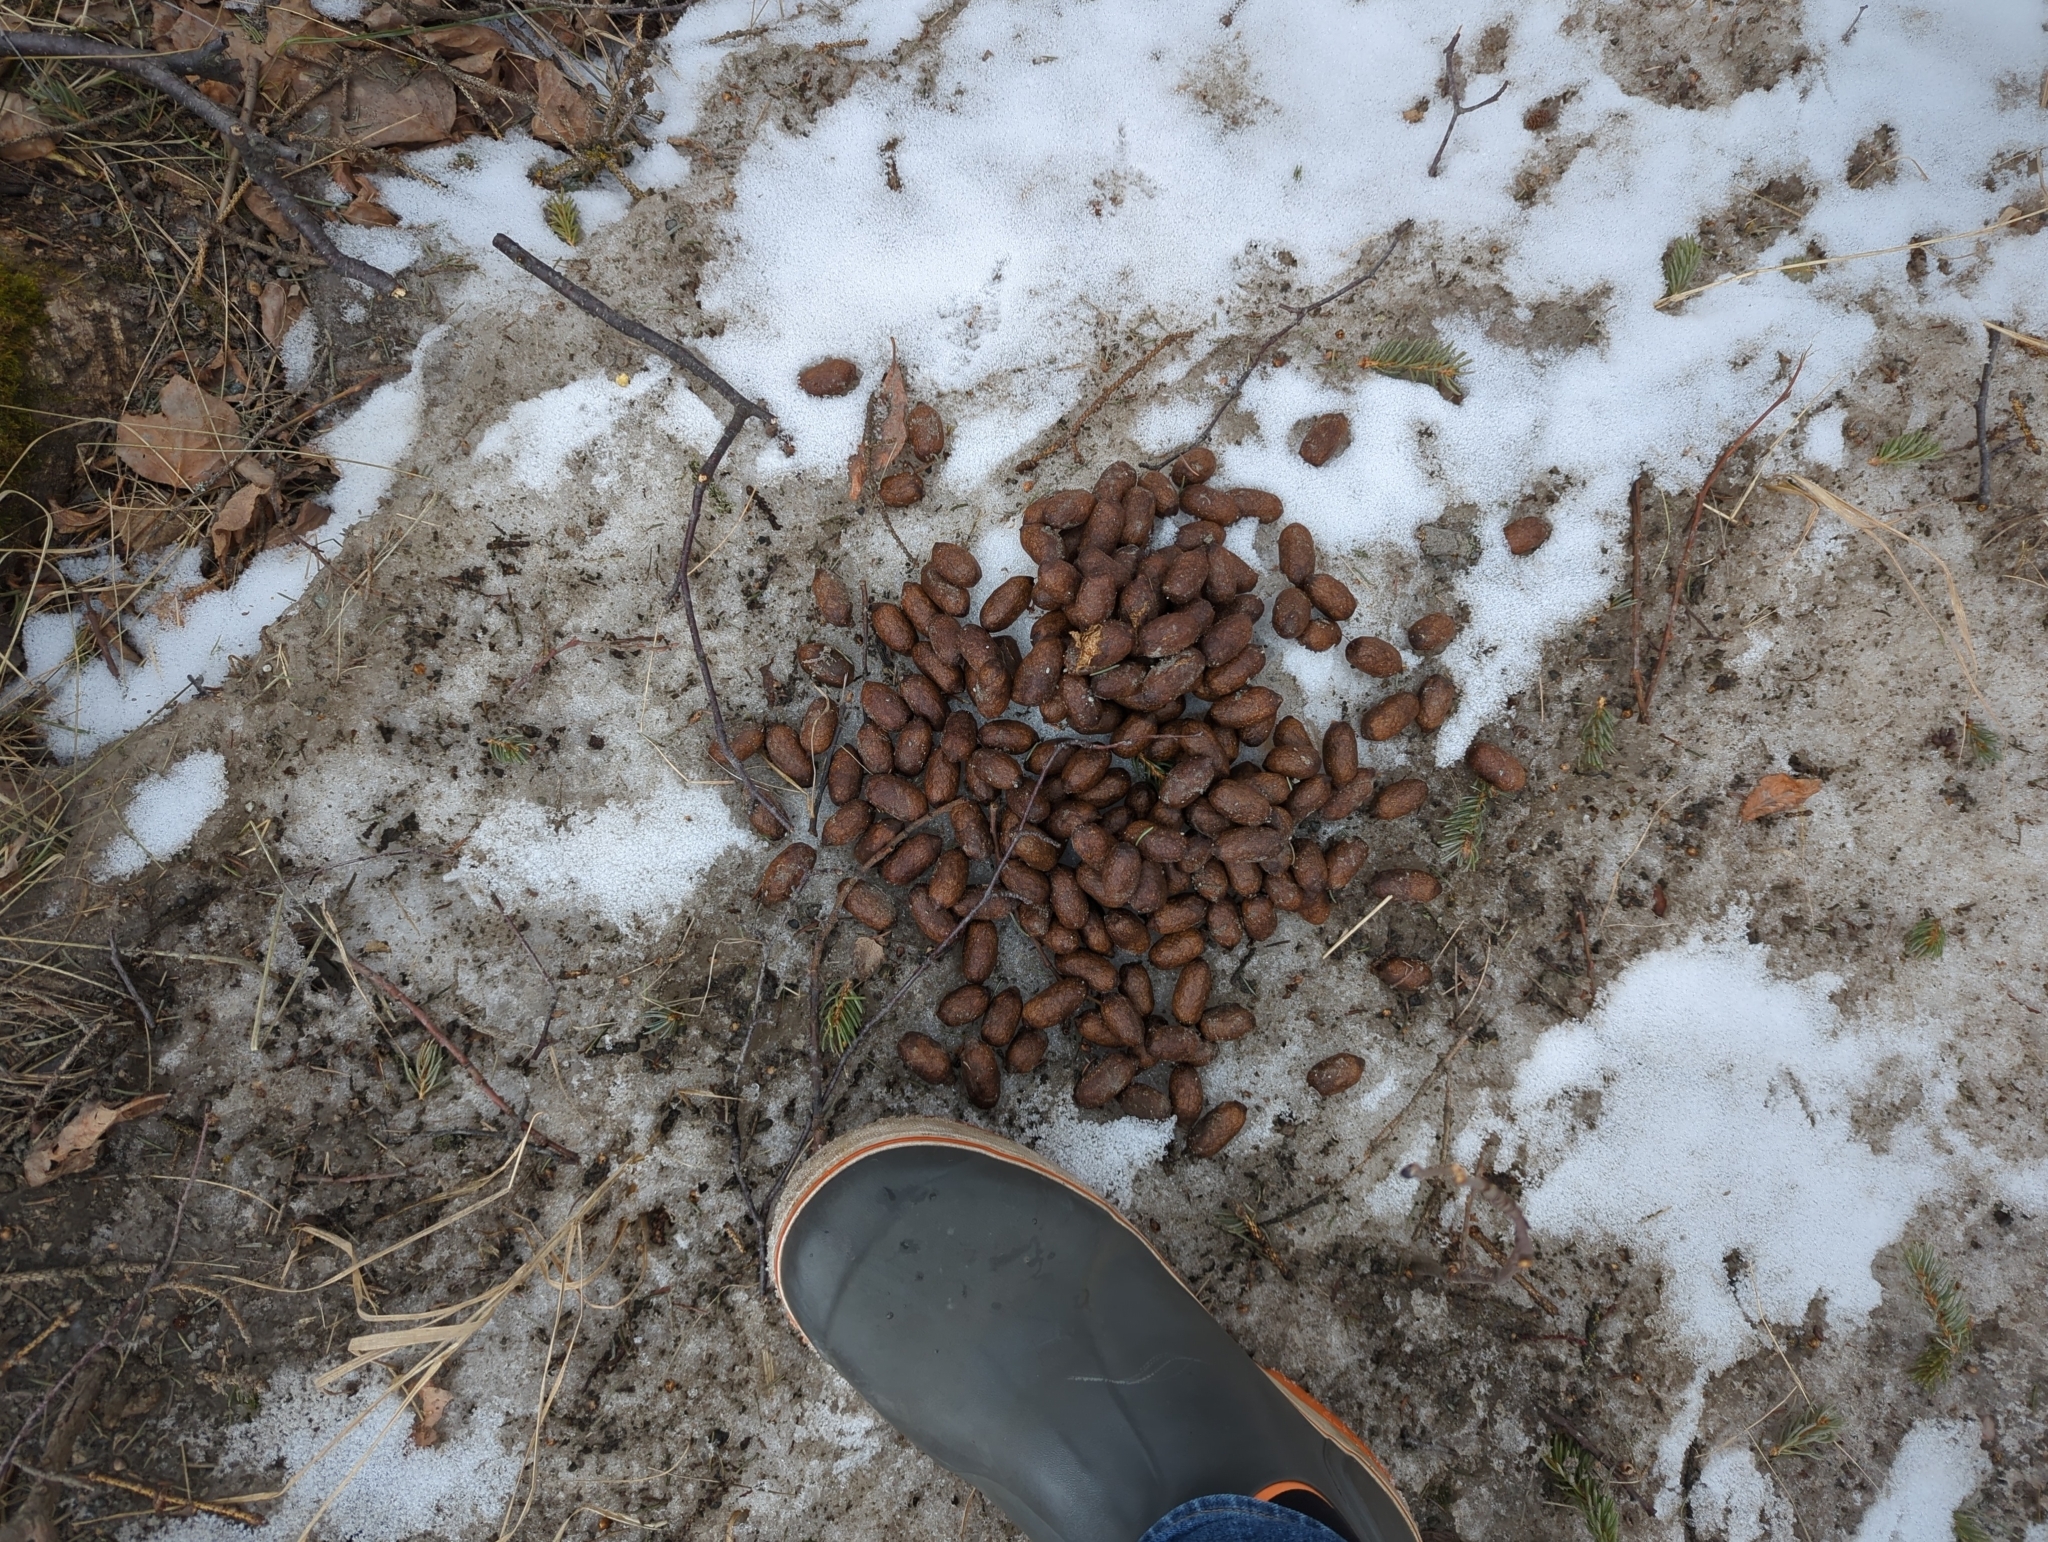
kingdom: Animalia
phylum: Chordata
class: Mammalia
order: Artiodactyla
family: Cervidae
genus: Alces
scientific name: Alces alces
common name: Moose
